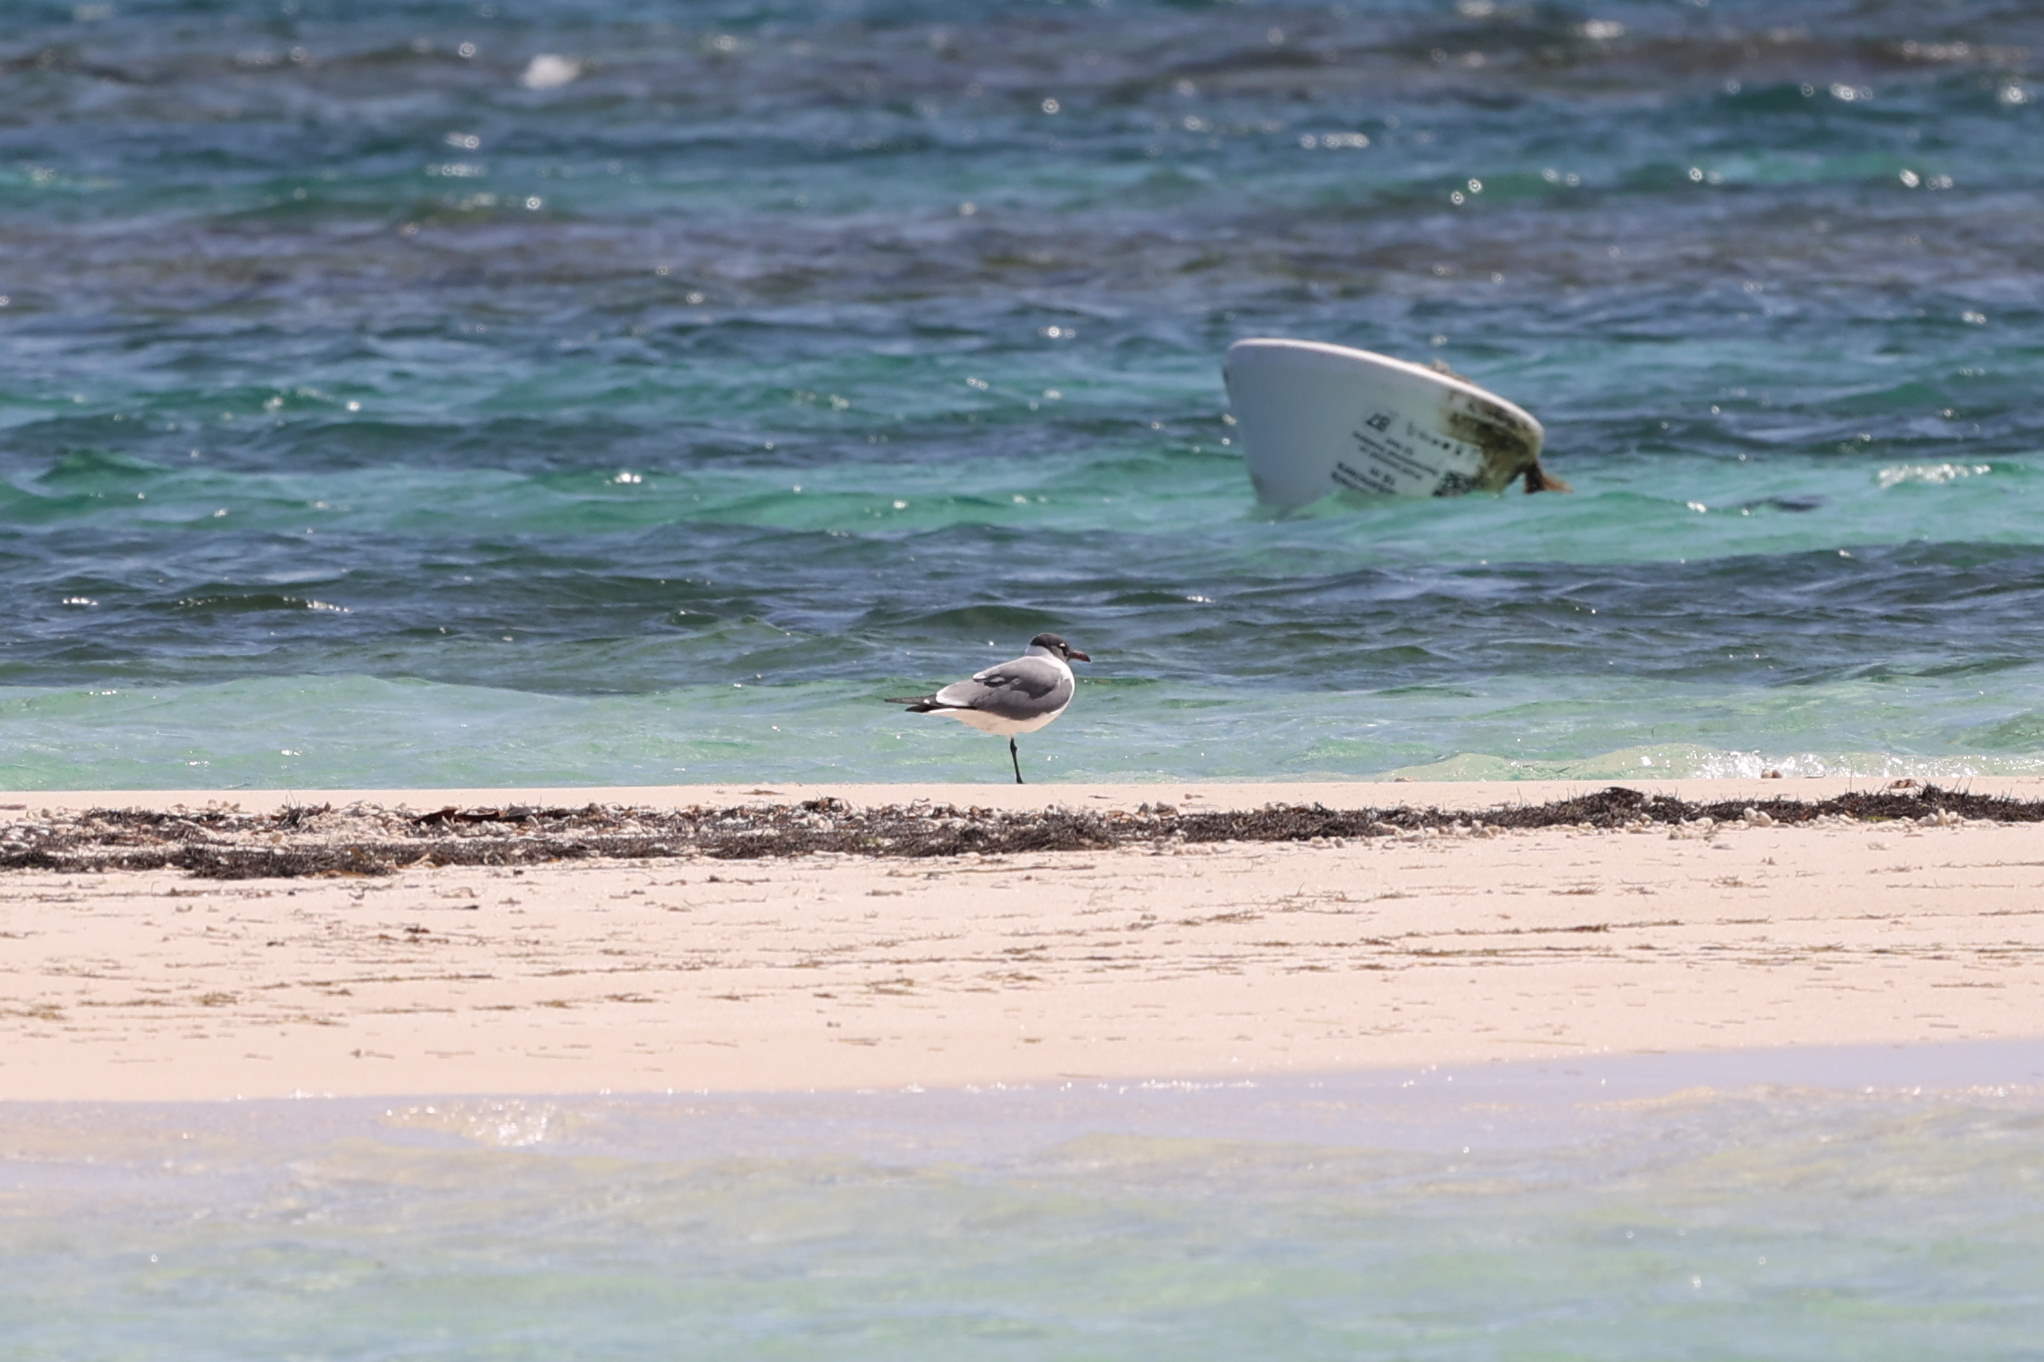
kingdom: Animalia
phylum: Chordata
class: Aves
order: Charadriiformes
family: Laridae
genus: Leucophaeus
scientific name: Leucophaeus atricilla
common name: Laughing gull
